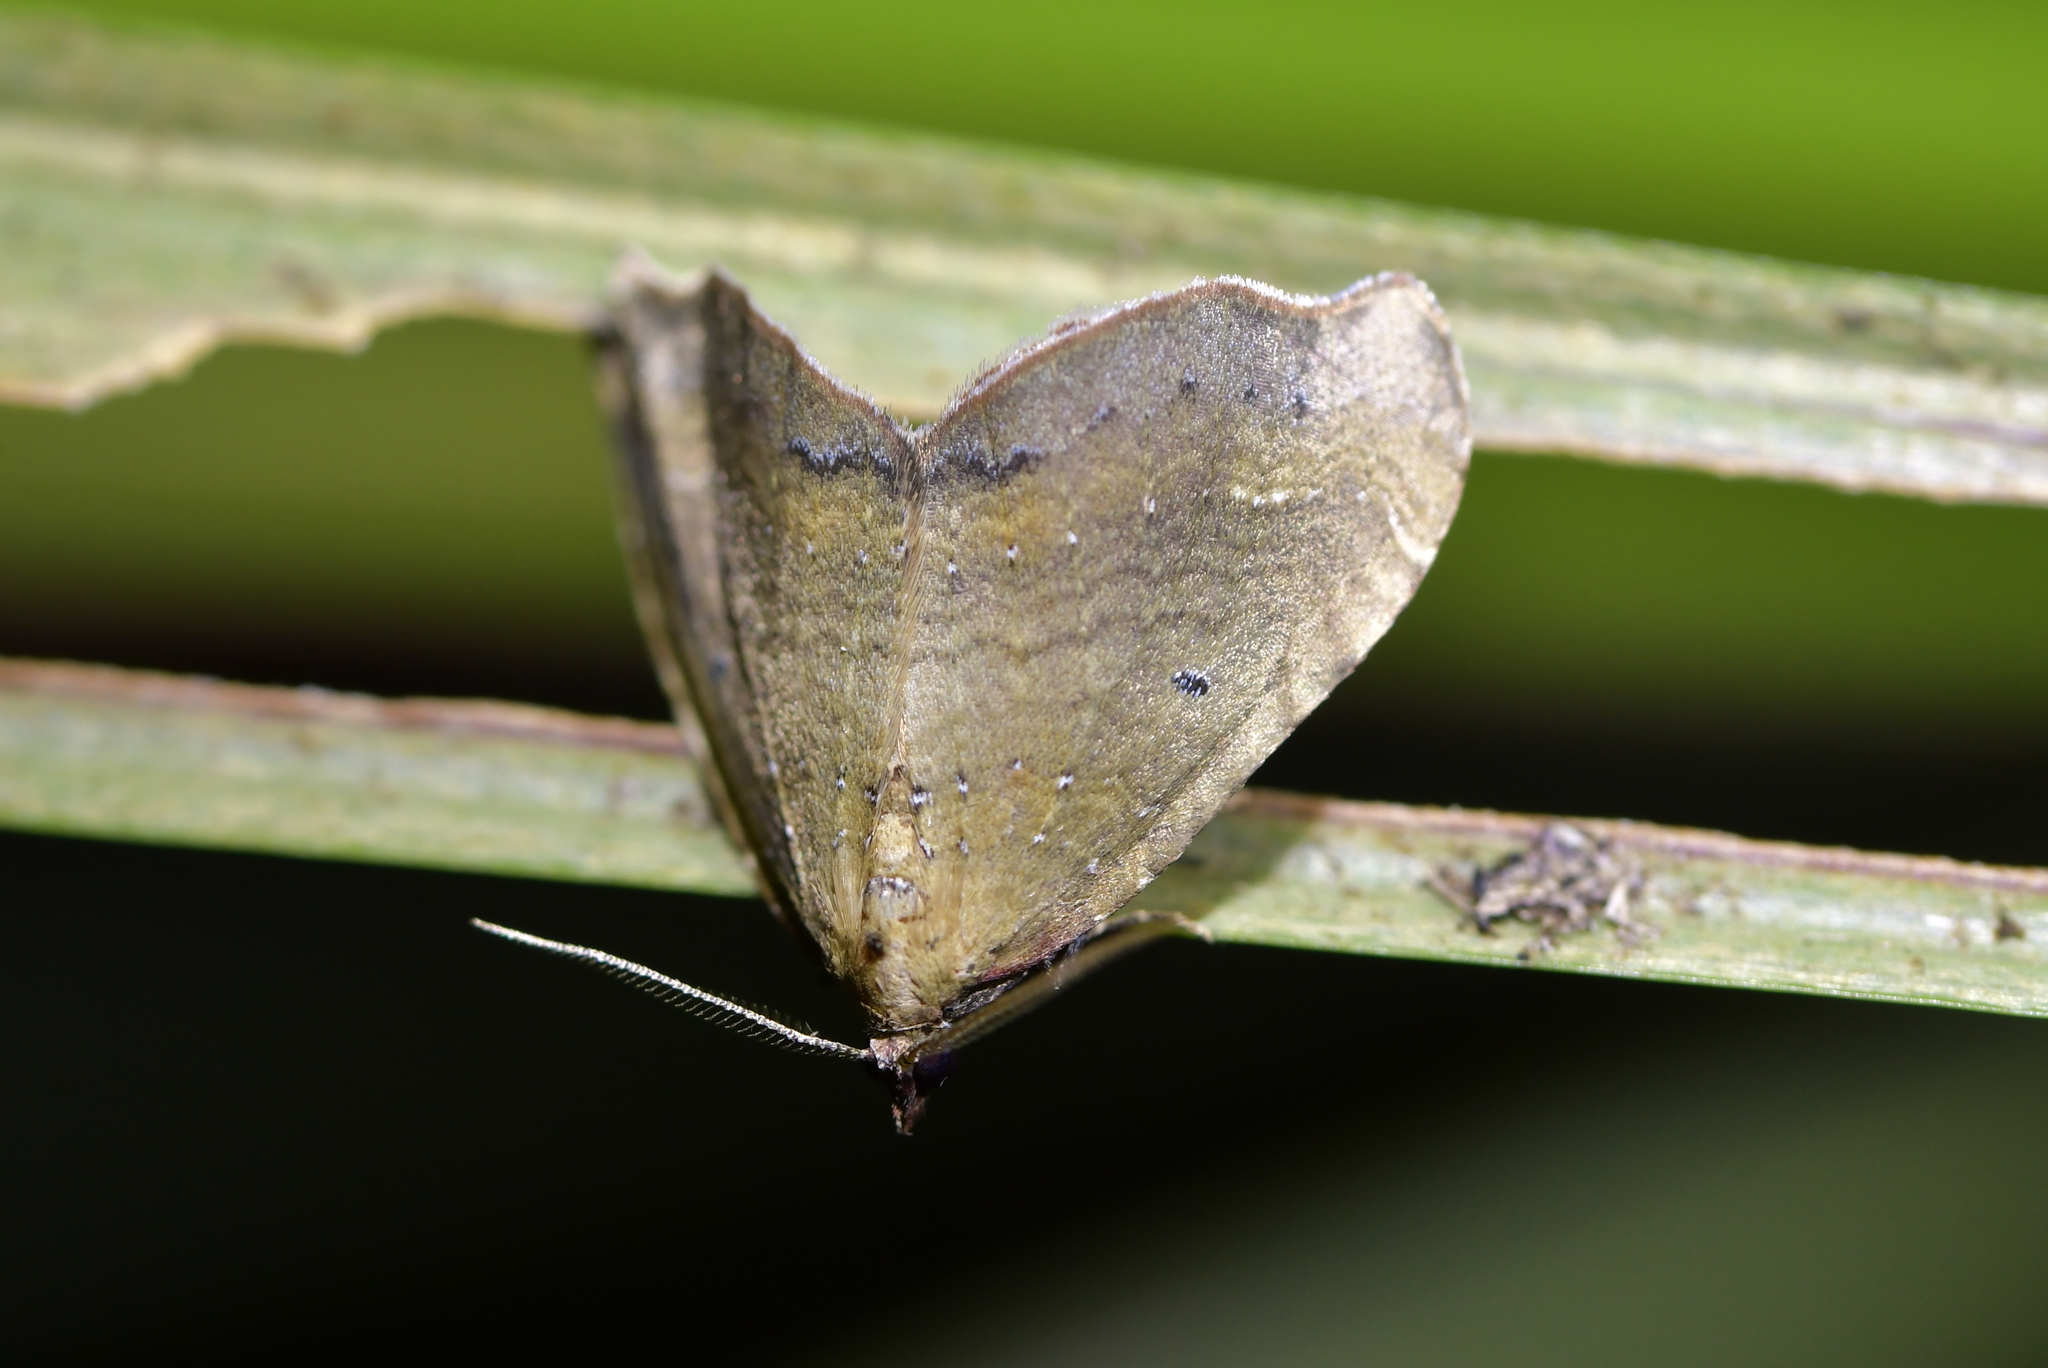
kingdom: Animalia
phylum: Arthropoda
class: Insecta
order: Lepidoptera
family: Geometridae
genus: Asaphodes
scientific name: Asaphodes camelias
